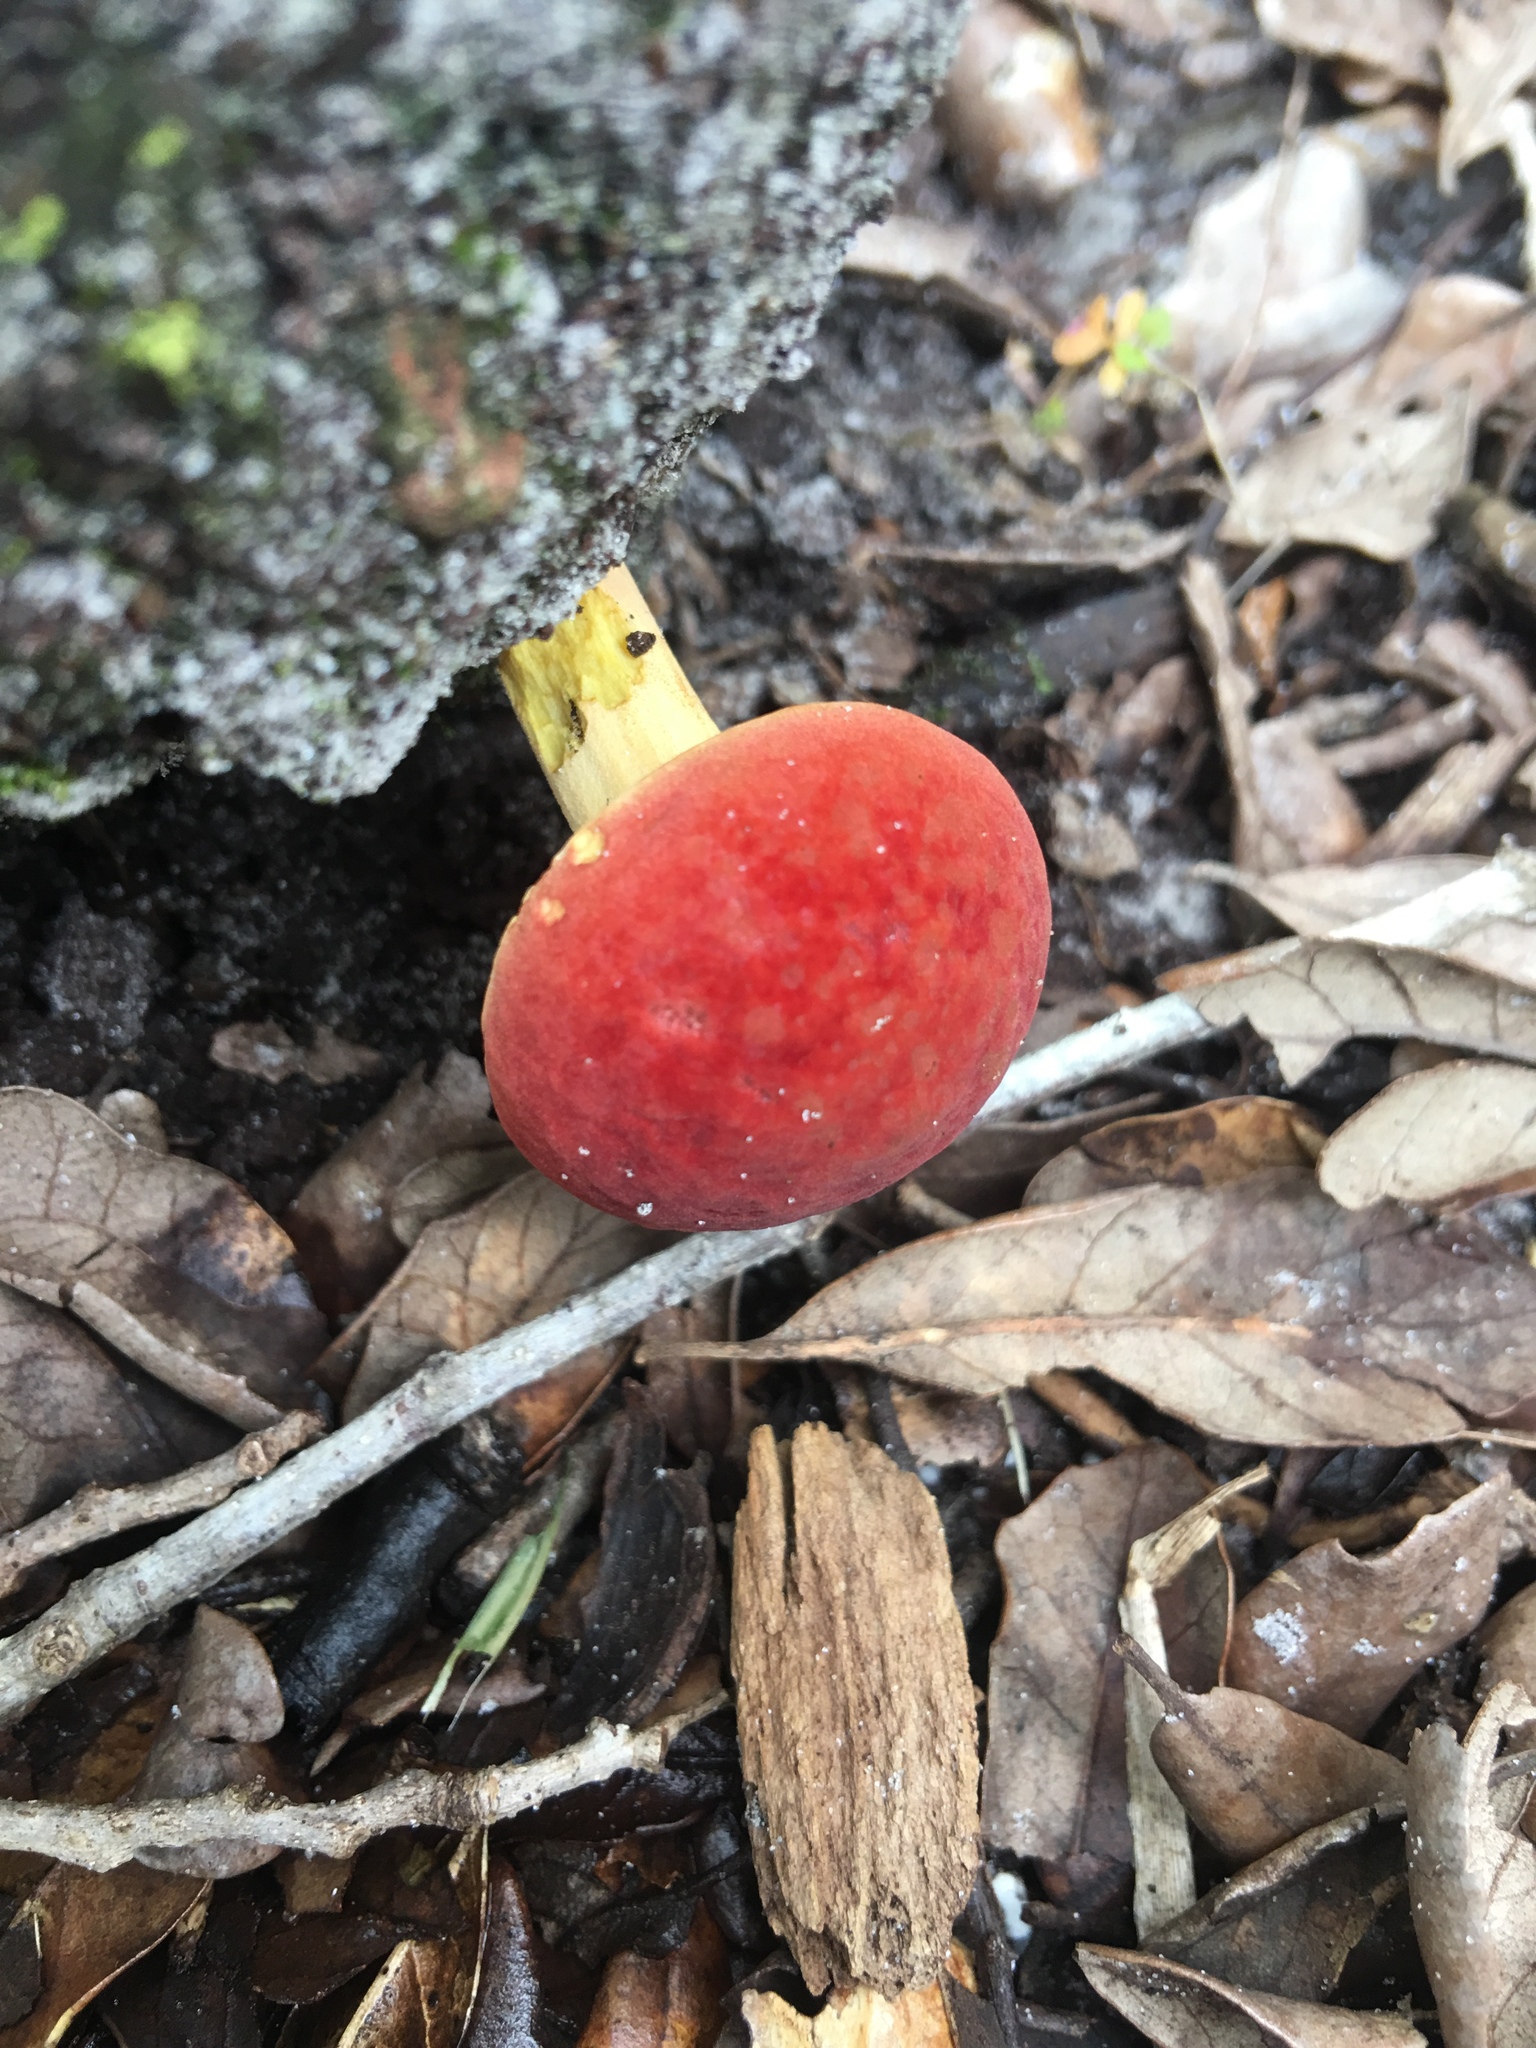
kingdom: Fungi
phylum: Basidiomycota
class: Agaricomycetes
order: Boletales
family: Boletaceae
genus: Hortiboletus
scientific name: Hortiboletus rubellus
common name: Ruby bolete
